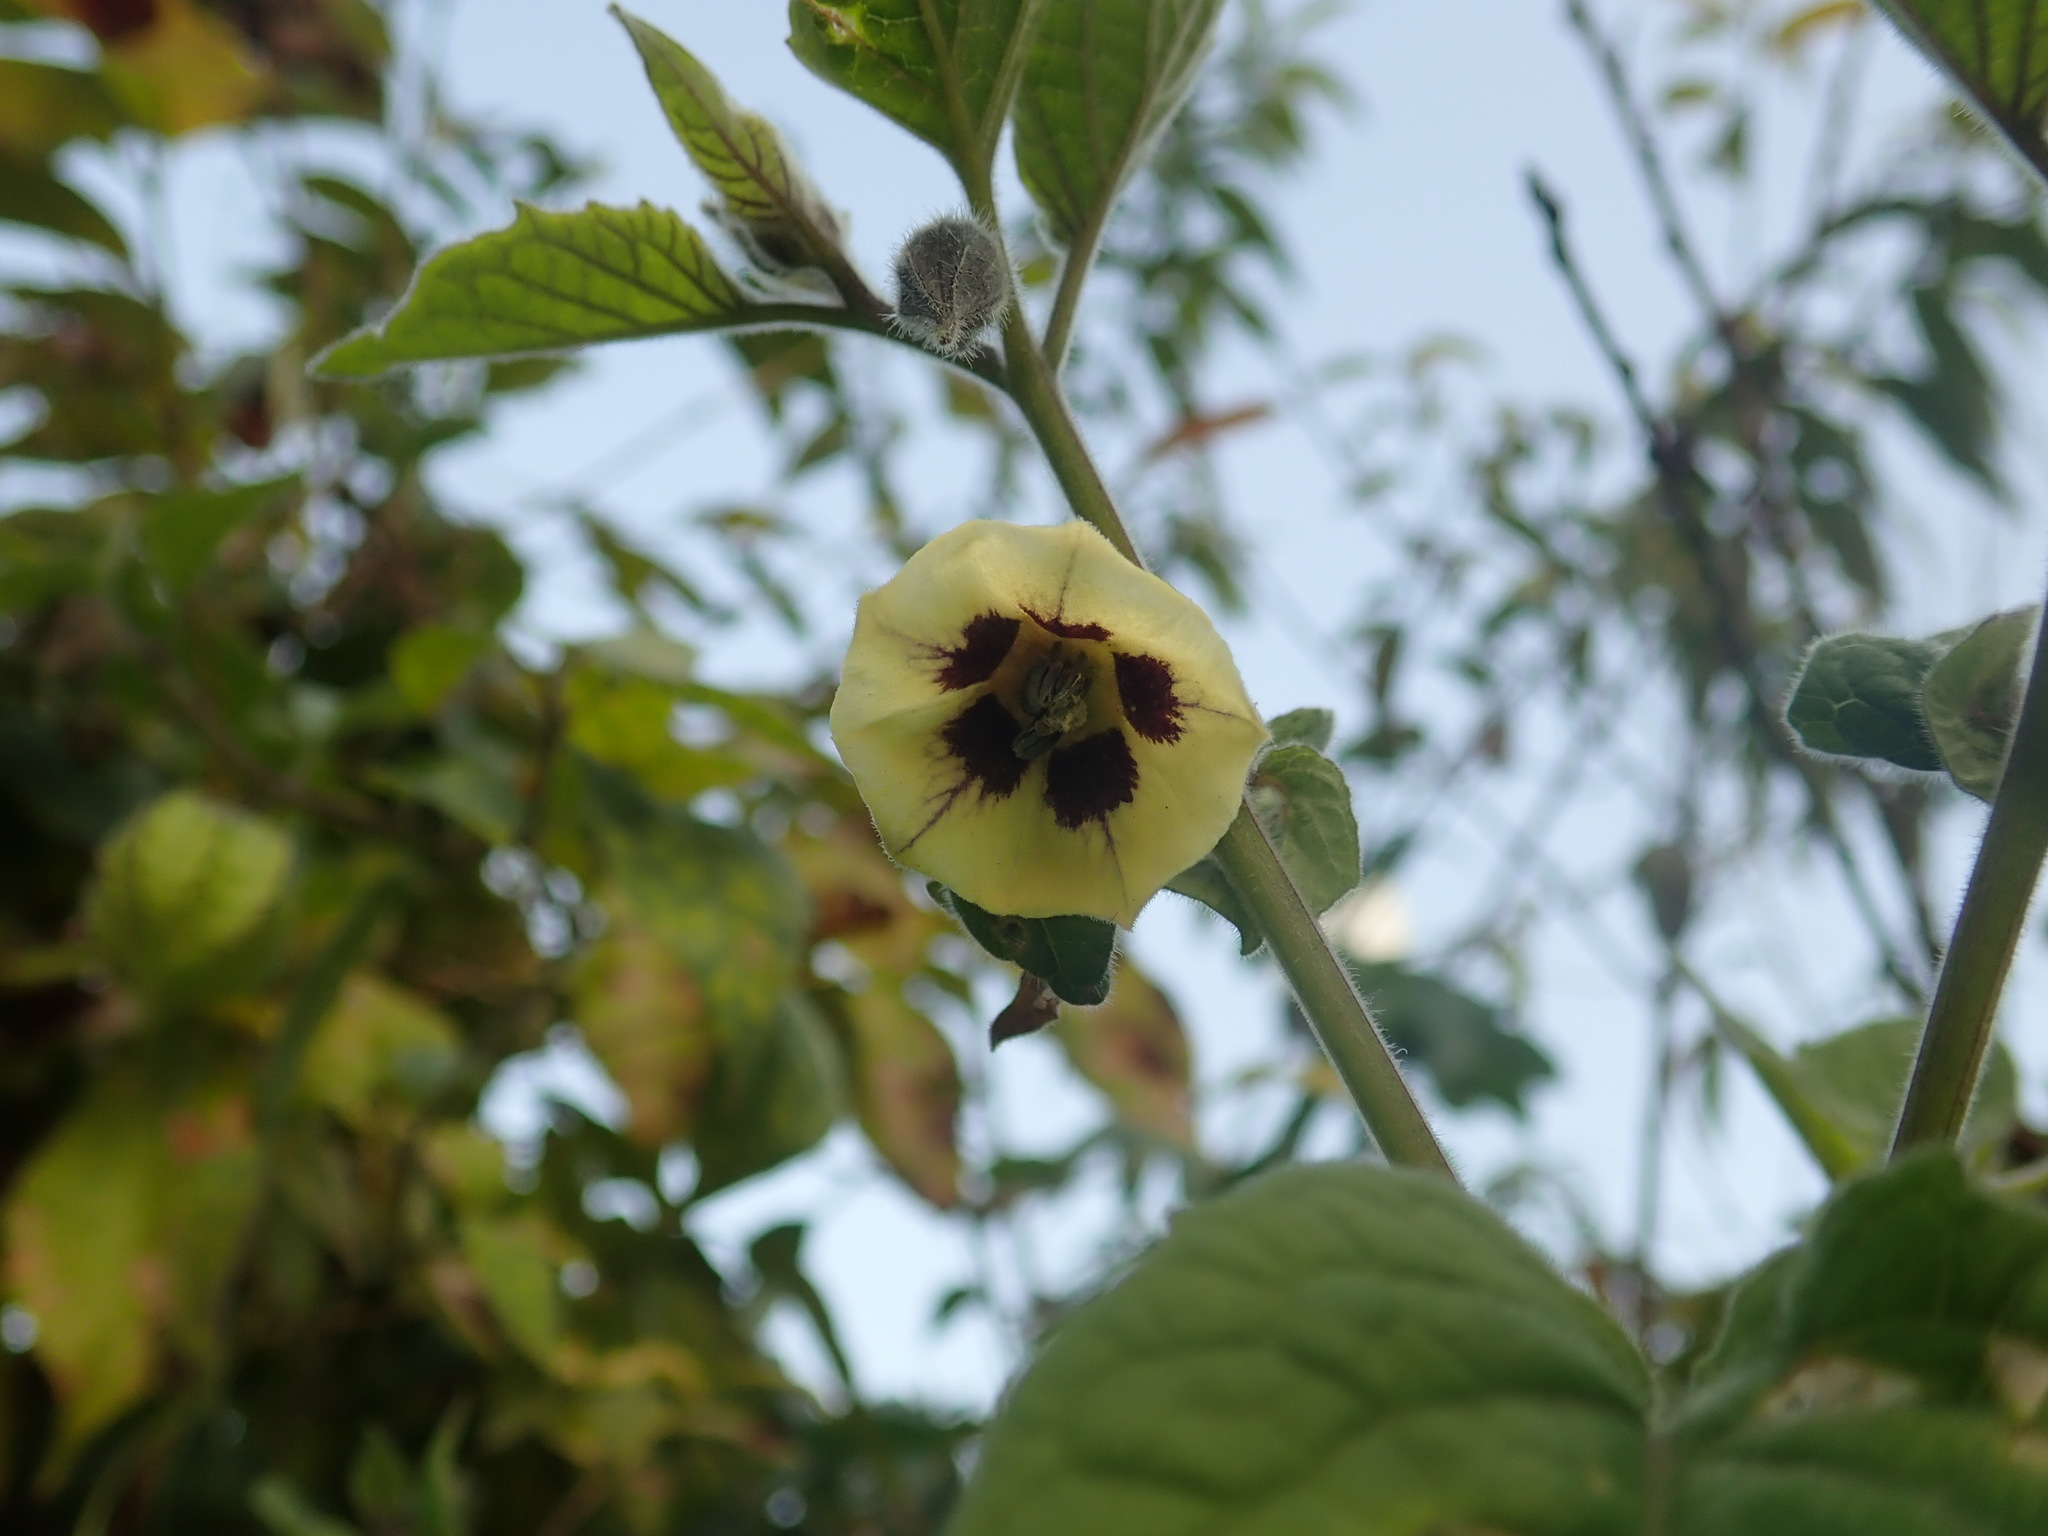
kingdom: Plantae
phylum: Tracheophyta
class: Magnoliopsida
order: Solanales
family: Solanaceae
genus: Physalis
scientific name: Physalis peruviana
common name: Cape-gooseberry
